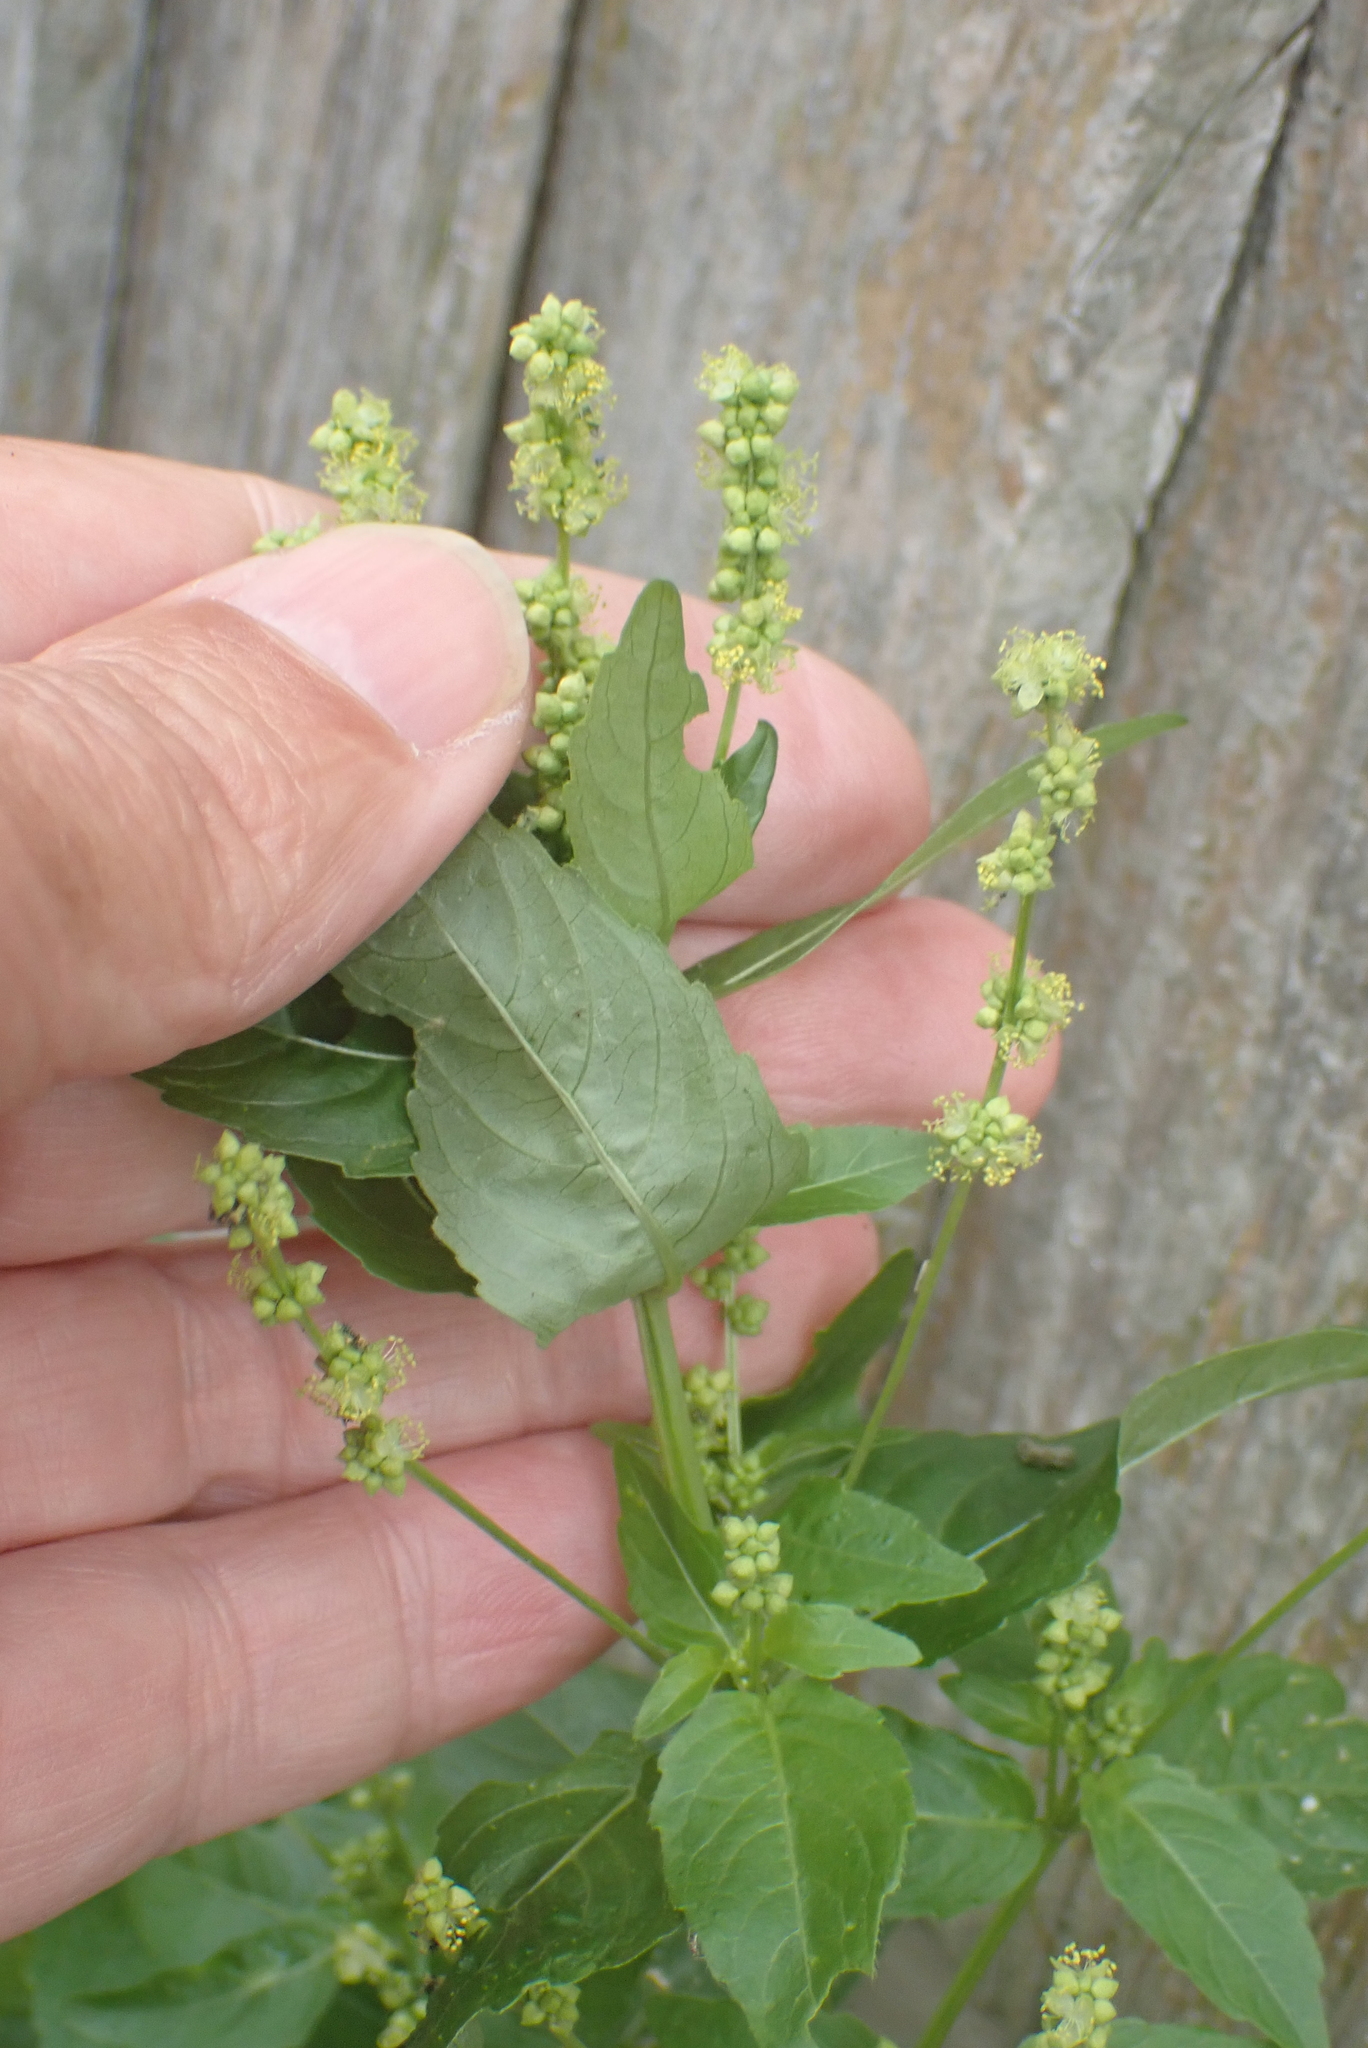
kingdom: Plantae
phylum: Tracheophyta
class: Magnoliopsida
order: Malpighiales
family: Euphorbiaceae
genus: Mercurialis
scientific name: Mercurialis annua
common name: Annual mercury
